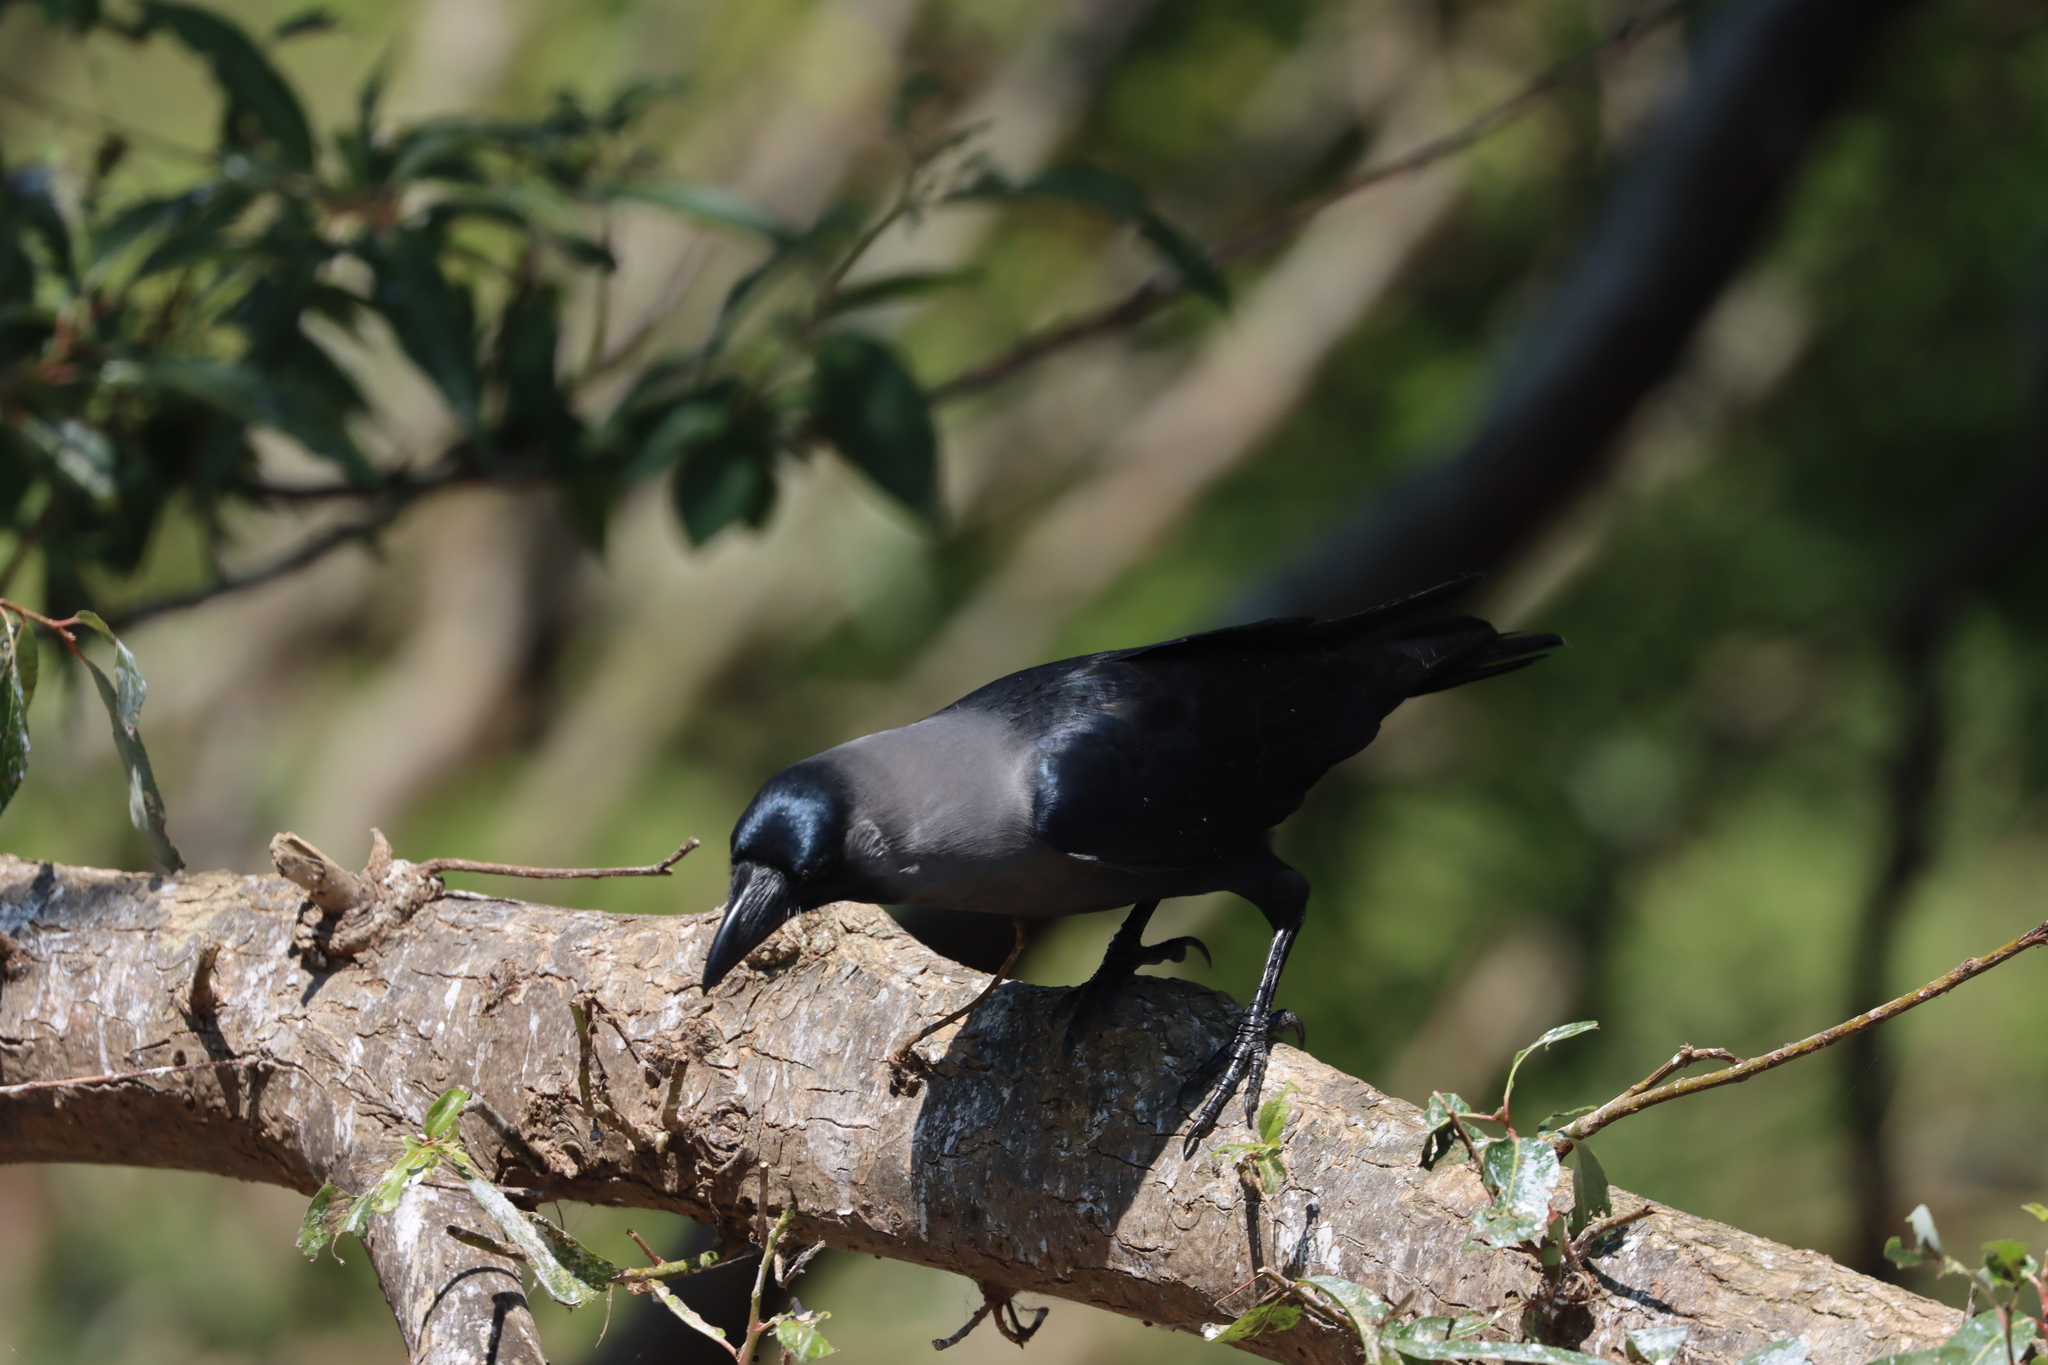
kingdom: Animalia
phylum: Chordata
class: Aves
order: Passeriformes
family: Corvidae
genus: Corvus
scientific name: Corvus splendens
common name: House crow
